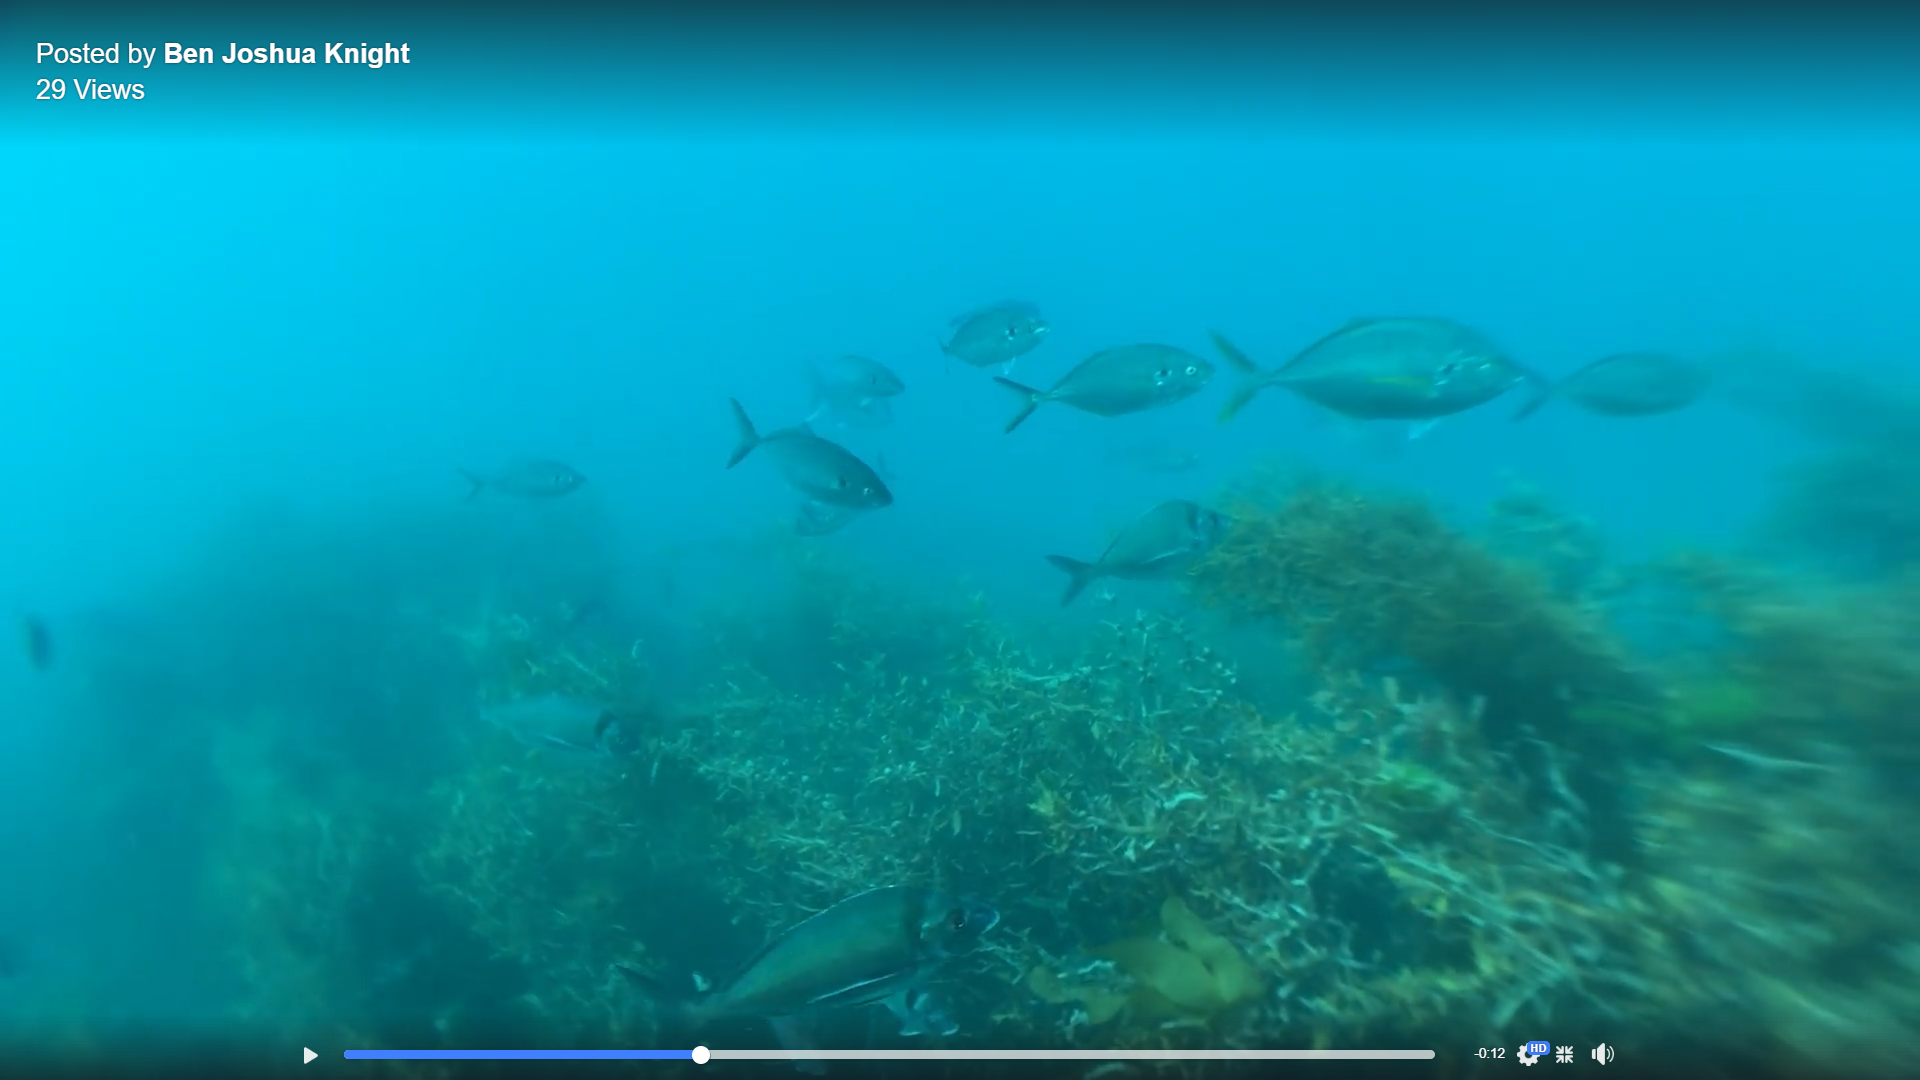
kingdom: Animalia
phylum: Chordata
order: Perciformes
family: Carangidae
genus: Pseudocaranx
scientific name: Pseudocaranx dentex
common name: White trevally
